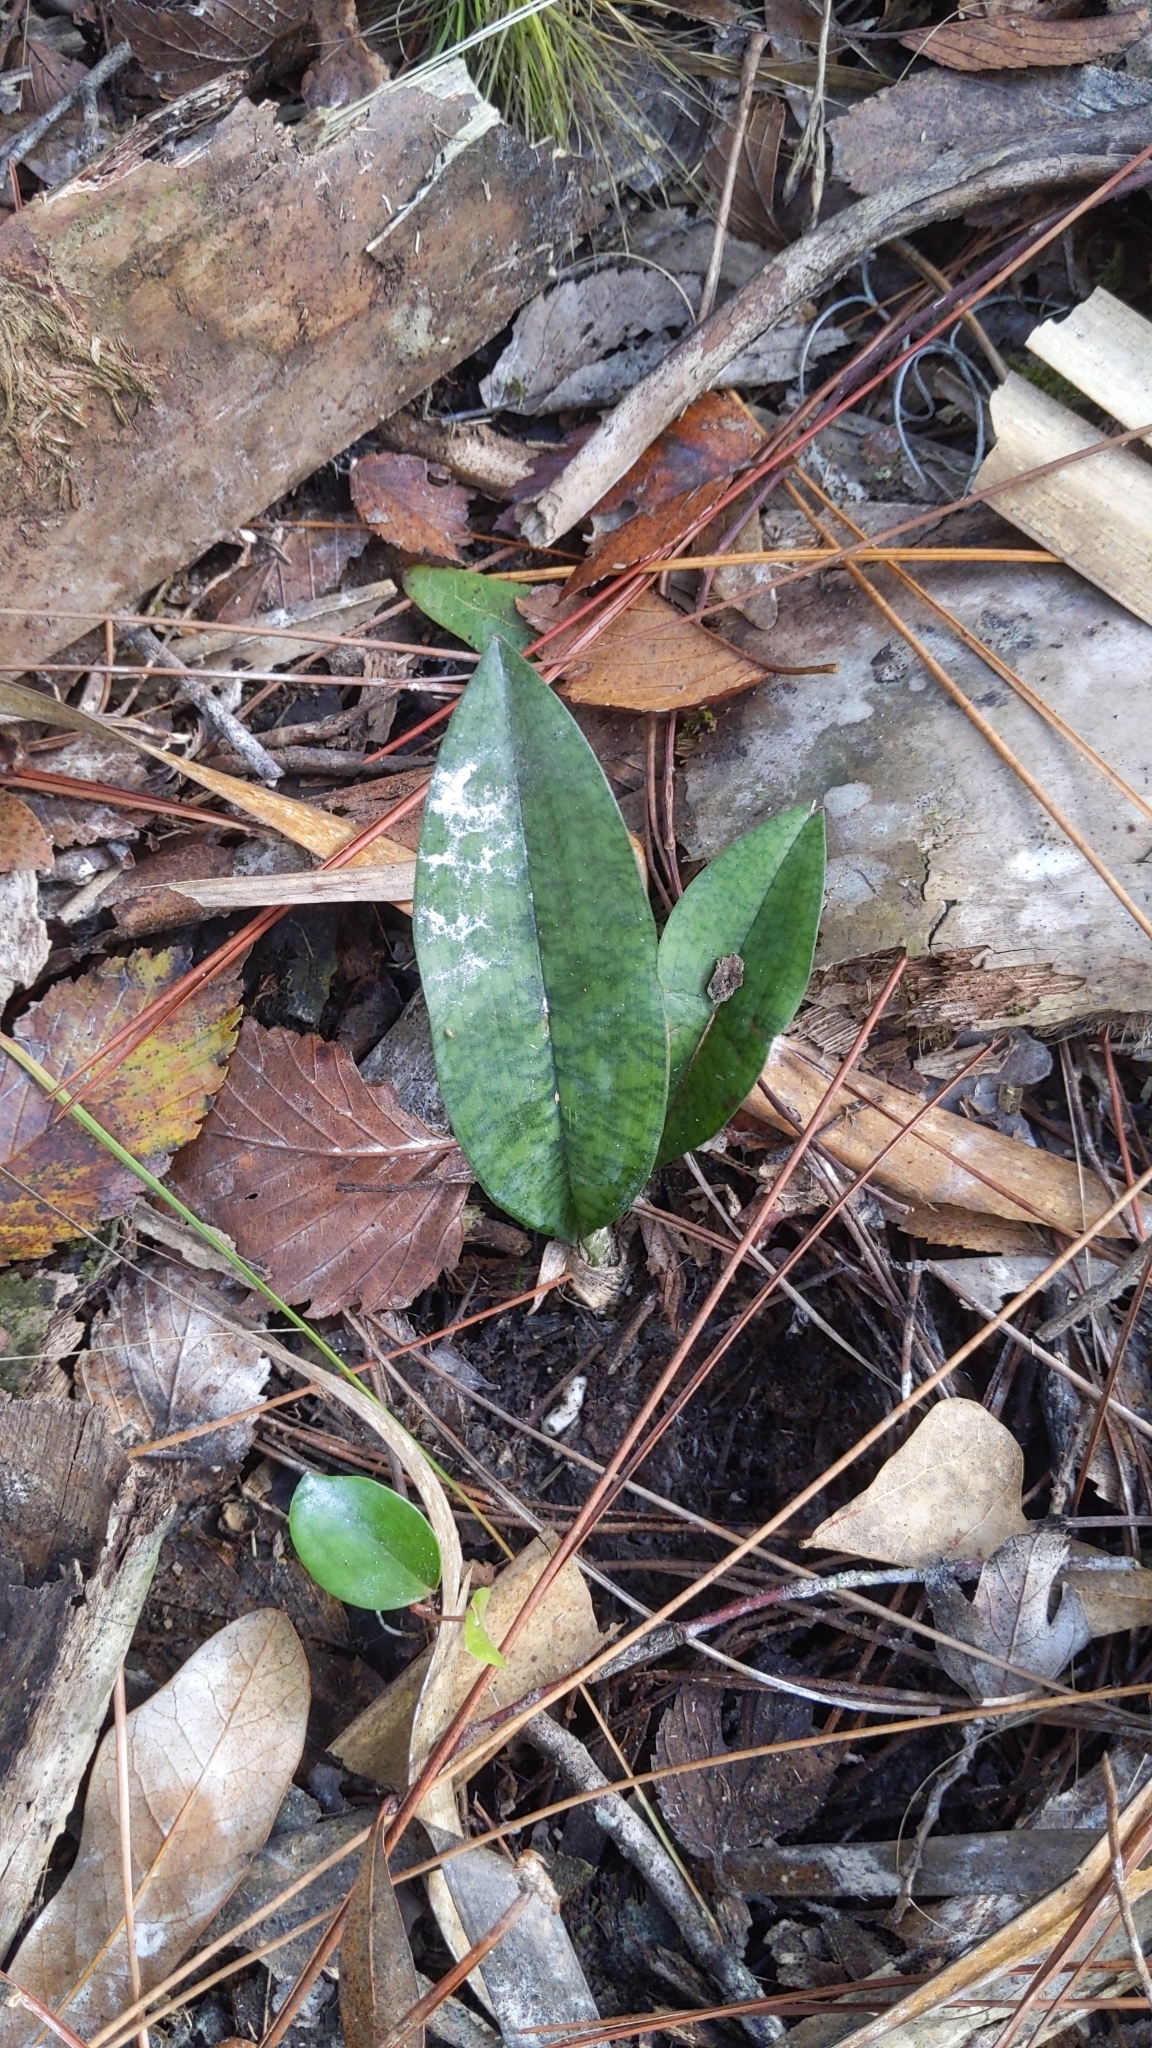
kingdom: Plantae
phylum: Tracheophyta
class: Liliopsida
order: Asparagales
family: Orchidaceae
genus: Eulophia
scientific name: Eulophia maculata
